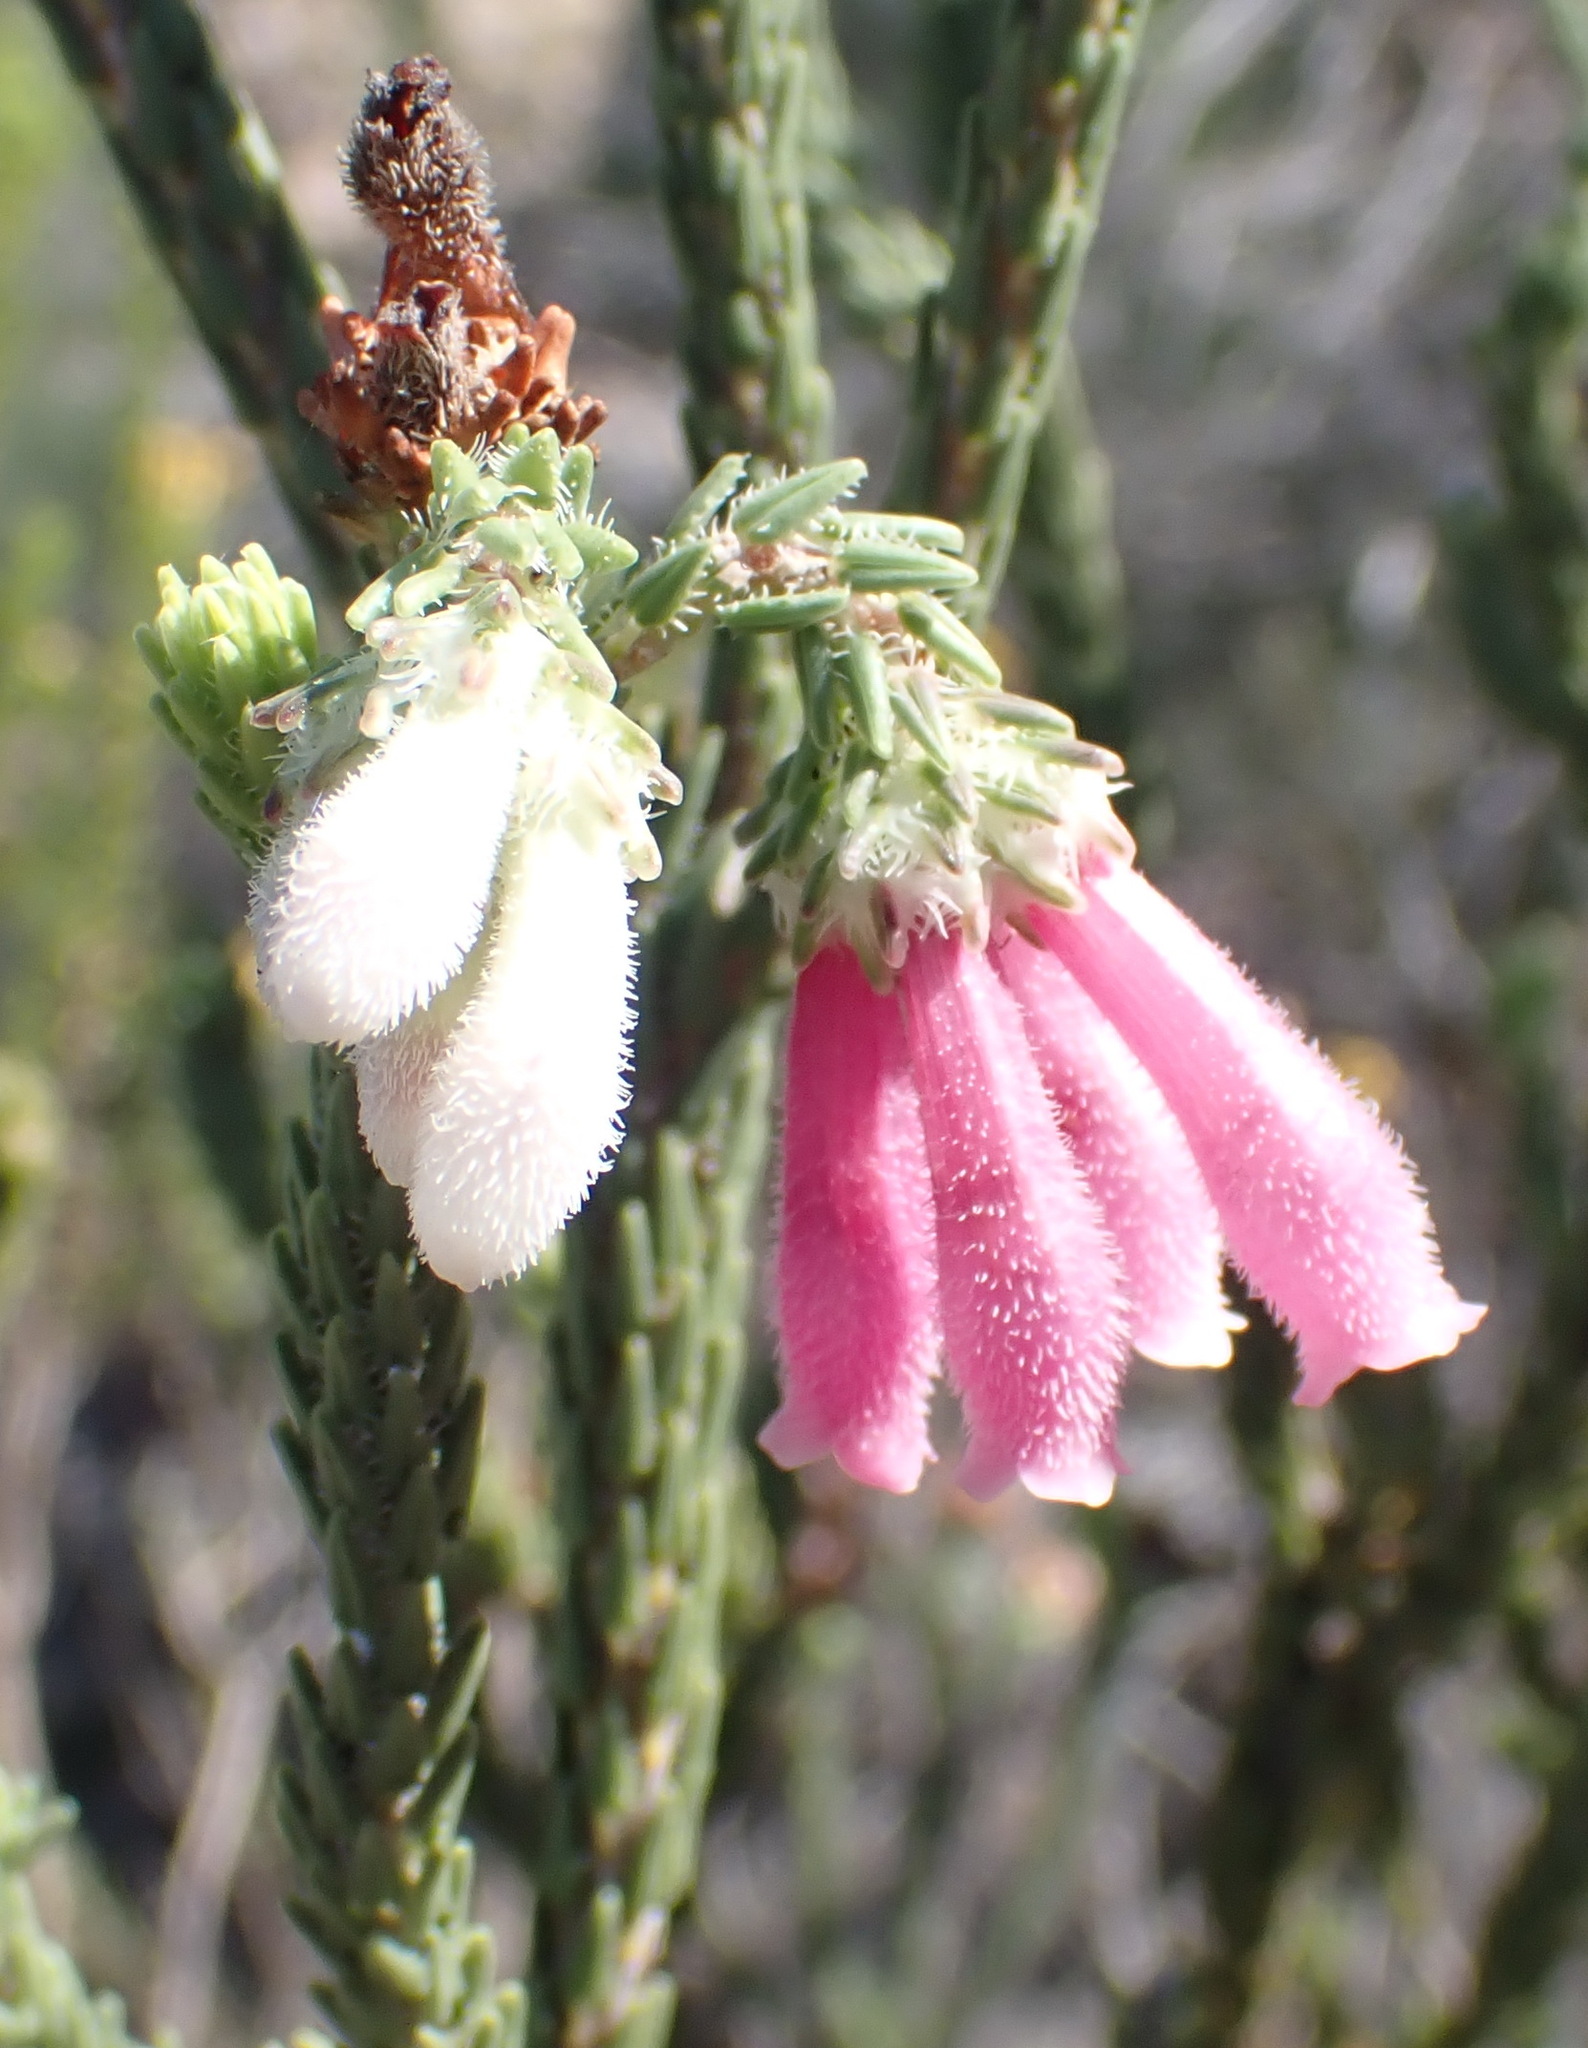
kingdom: Plantae
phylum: Tracheophyta
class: Magnoliopsida
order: Ericales
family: Ericaceae
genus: Erica
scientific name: Erica pectinifolia
